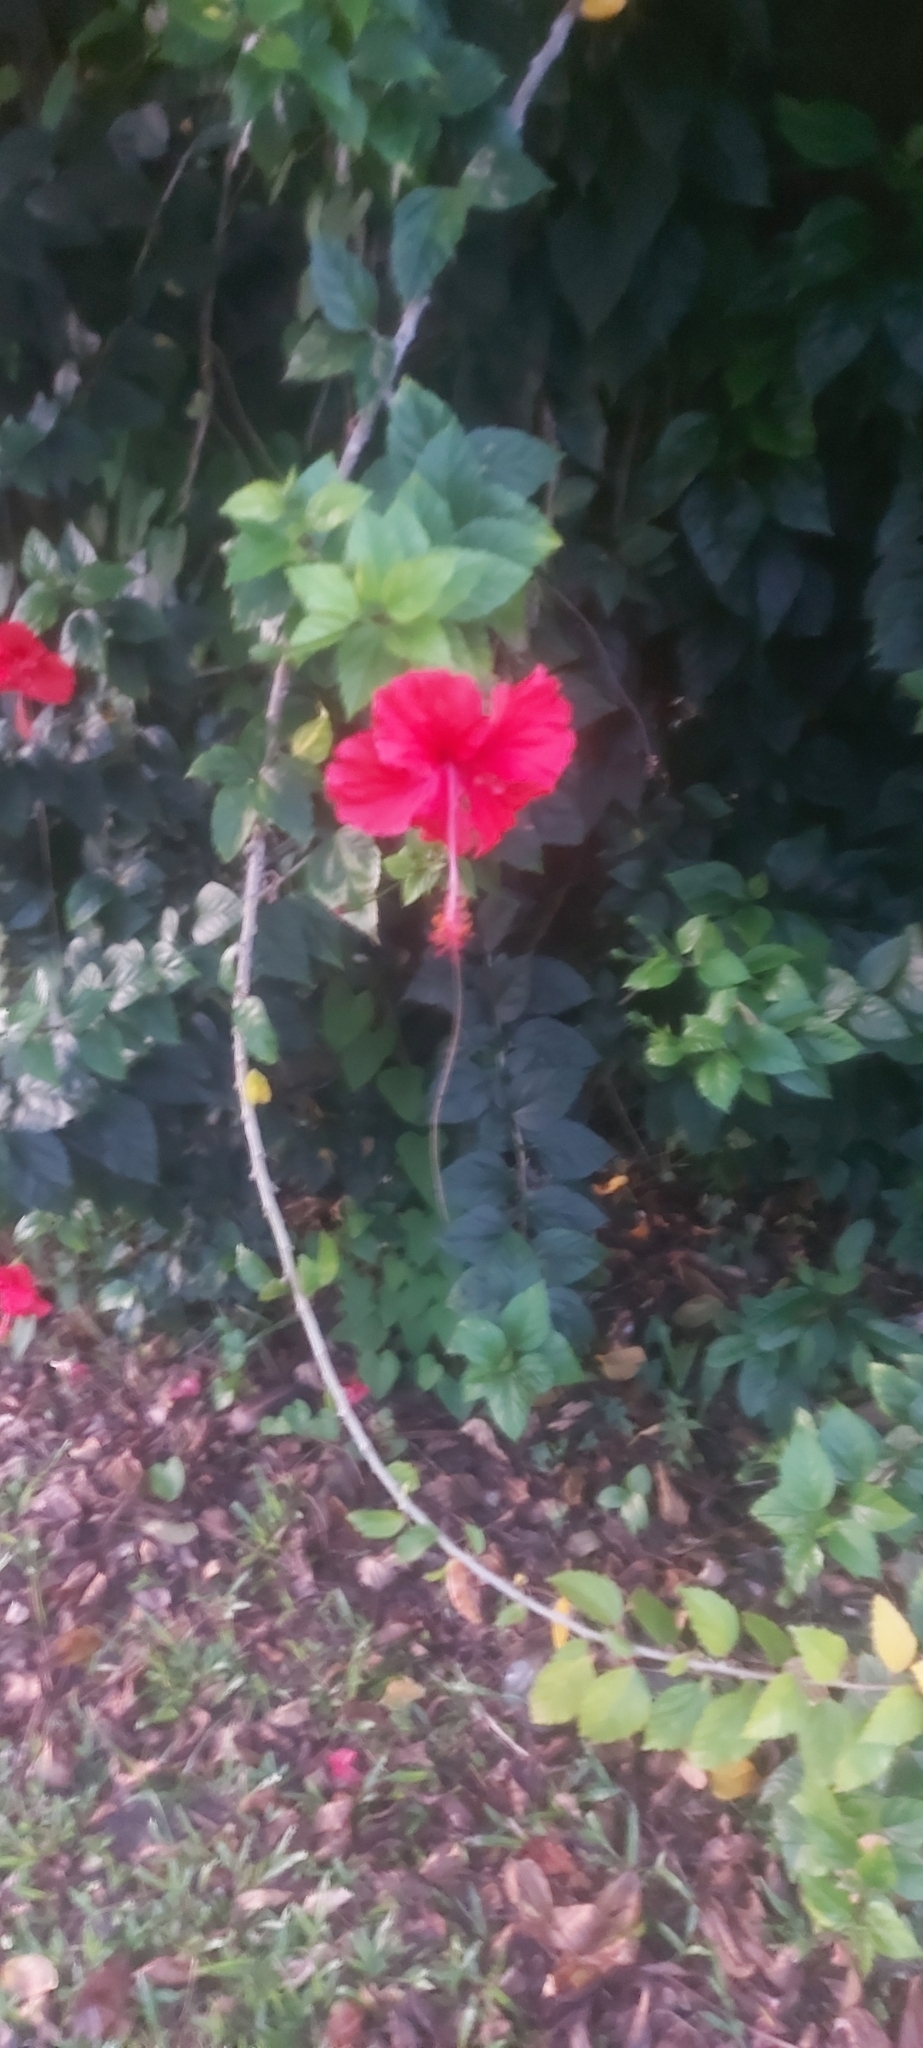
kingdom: Plantae
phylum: Tracheophyta
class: Magnoliopsida
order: Malvales
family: Malvaceae
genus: Hibiscus
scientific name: Hibiscus archeri
